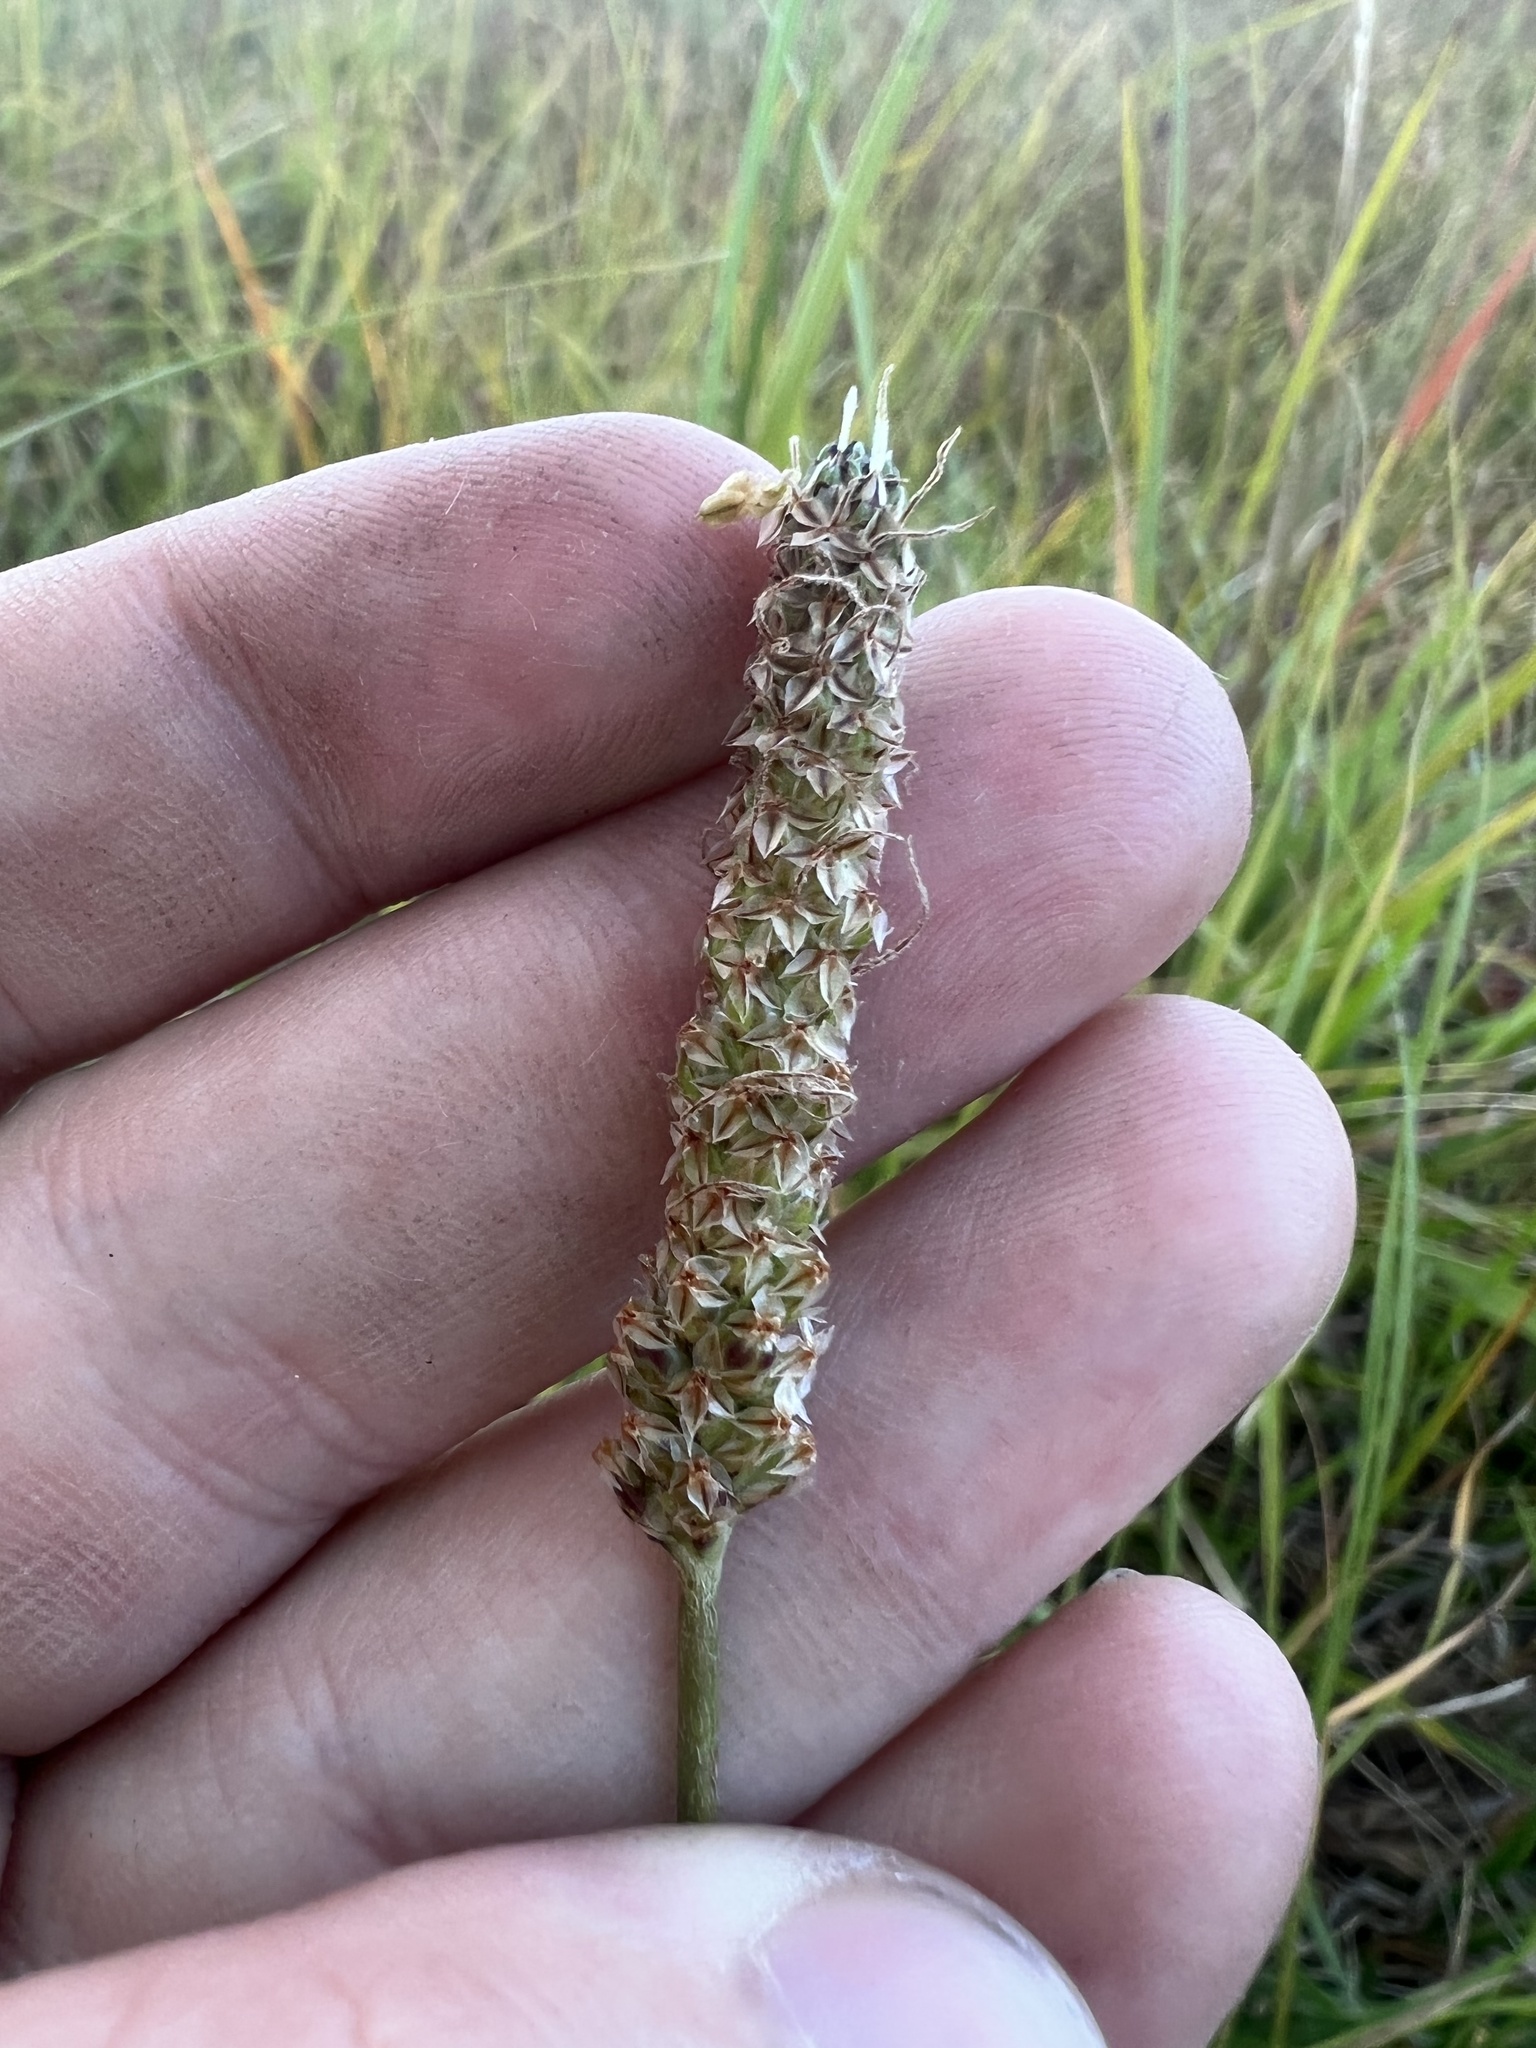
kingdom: Plantae
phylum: Tracheophyta
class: Magnoliopsida
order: Lamiales
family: Plantaginaceae
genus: Plantago
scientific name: Plantago lanceolata
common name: Ribwort plantain
